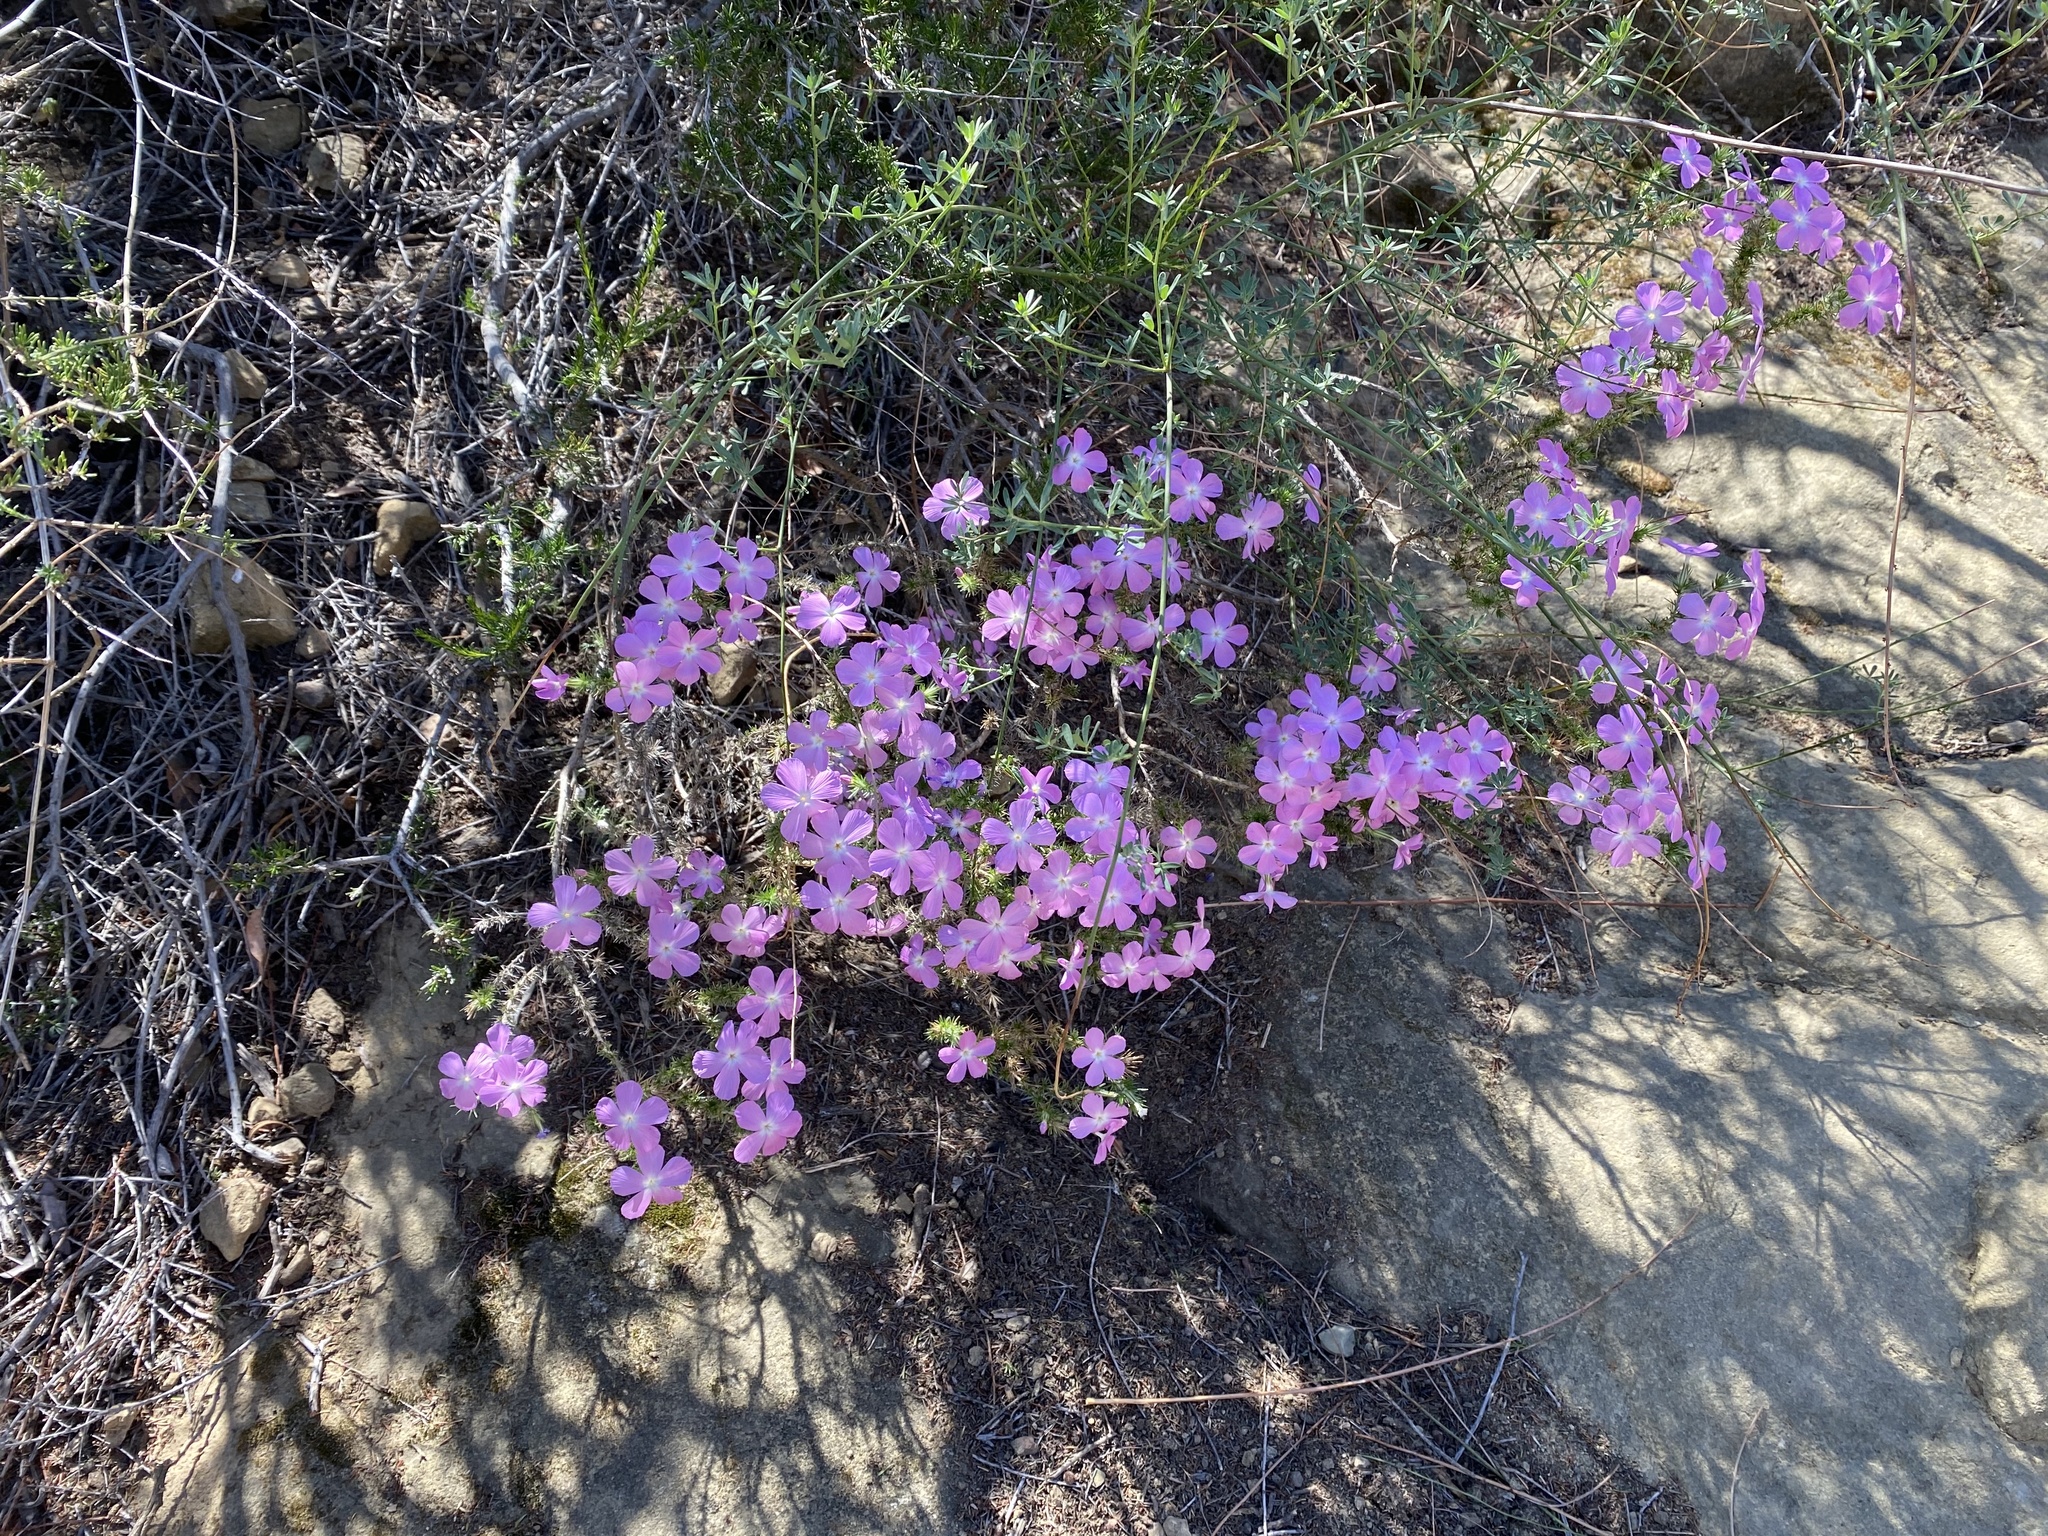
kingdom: Plantae
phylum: Tracheophyta
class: Magnoliopsida
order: Ericales
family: Polemoniaceae
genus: Linanthus
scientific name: Linanthus californicus
